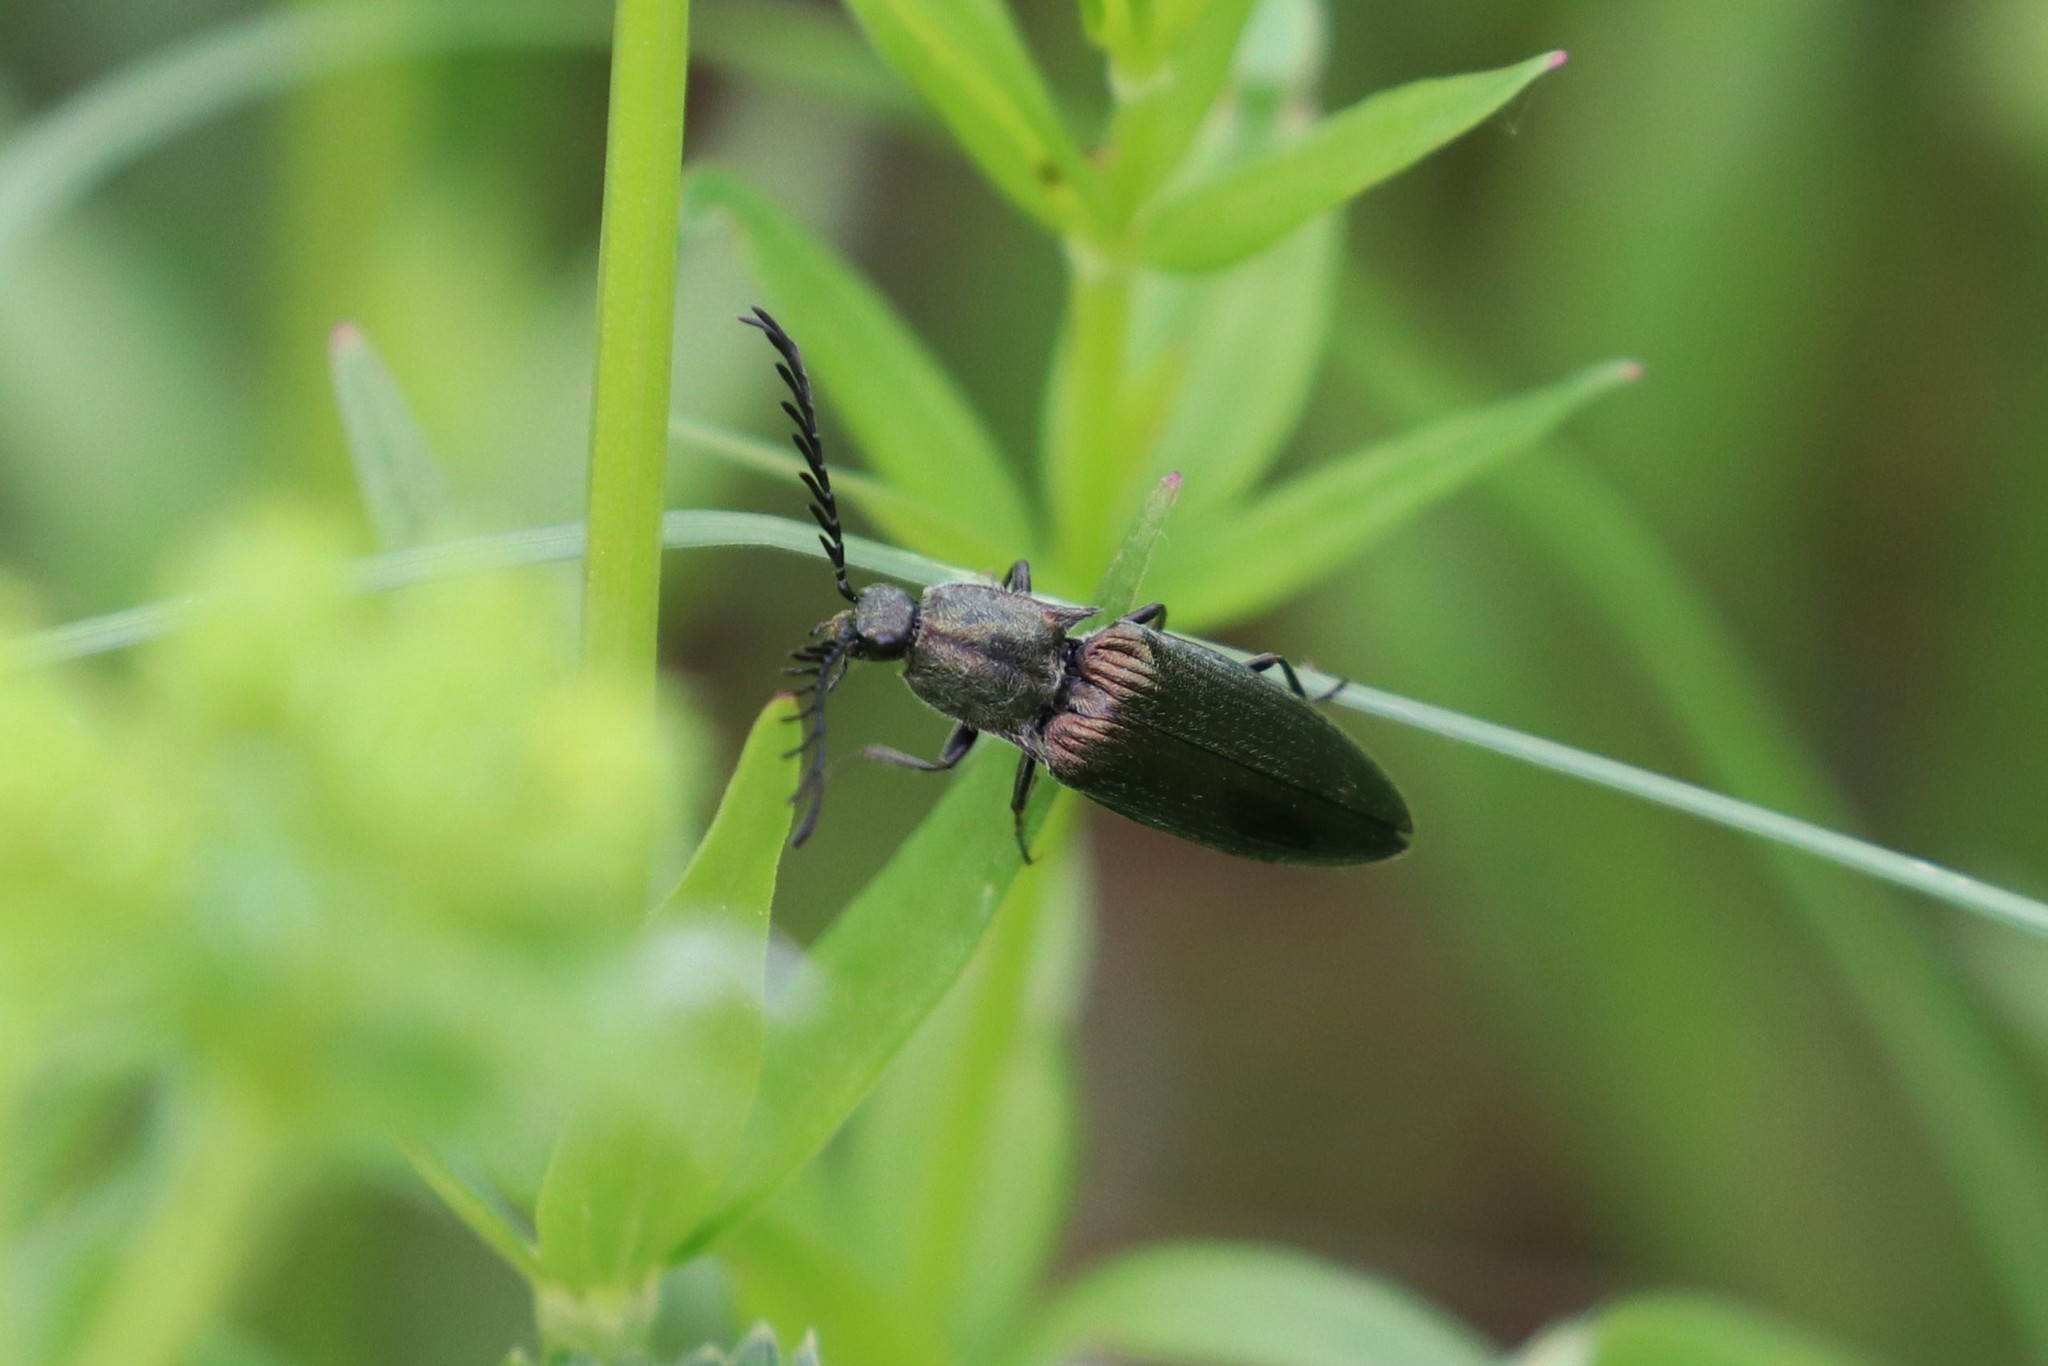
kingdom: Animalia
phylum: Arthropoda
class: Insecta
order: Coleoptera
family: Elateridae
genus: Ctenicera
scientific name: Ctenicera pectinicornis
